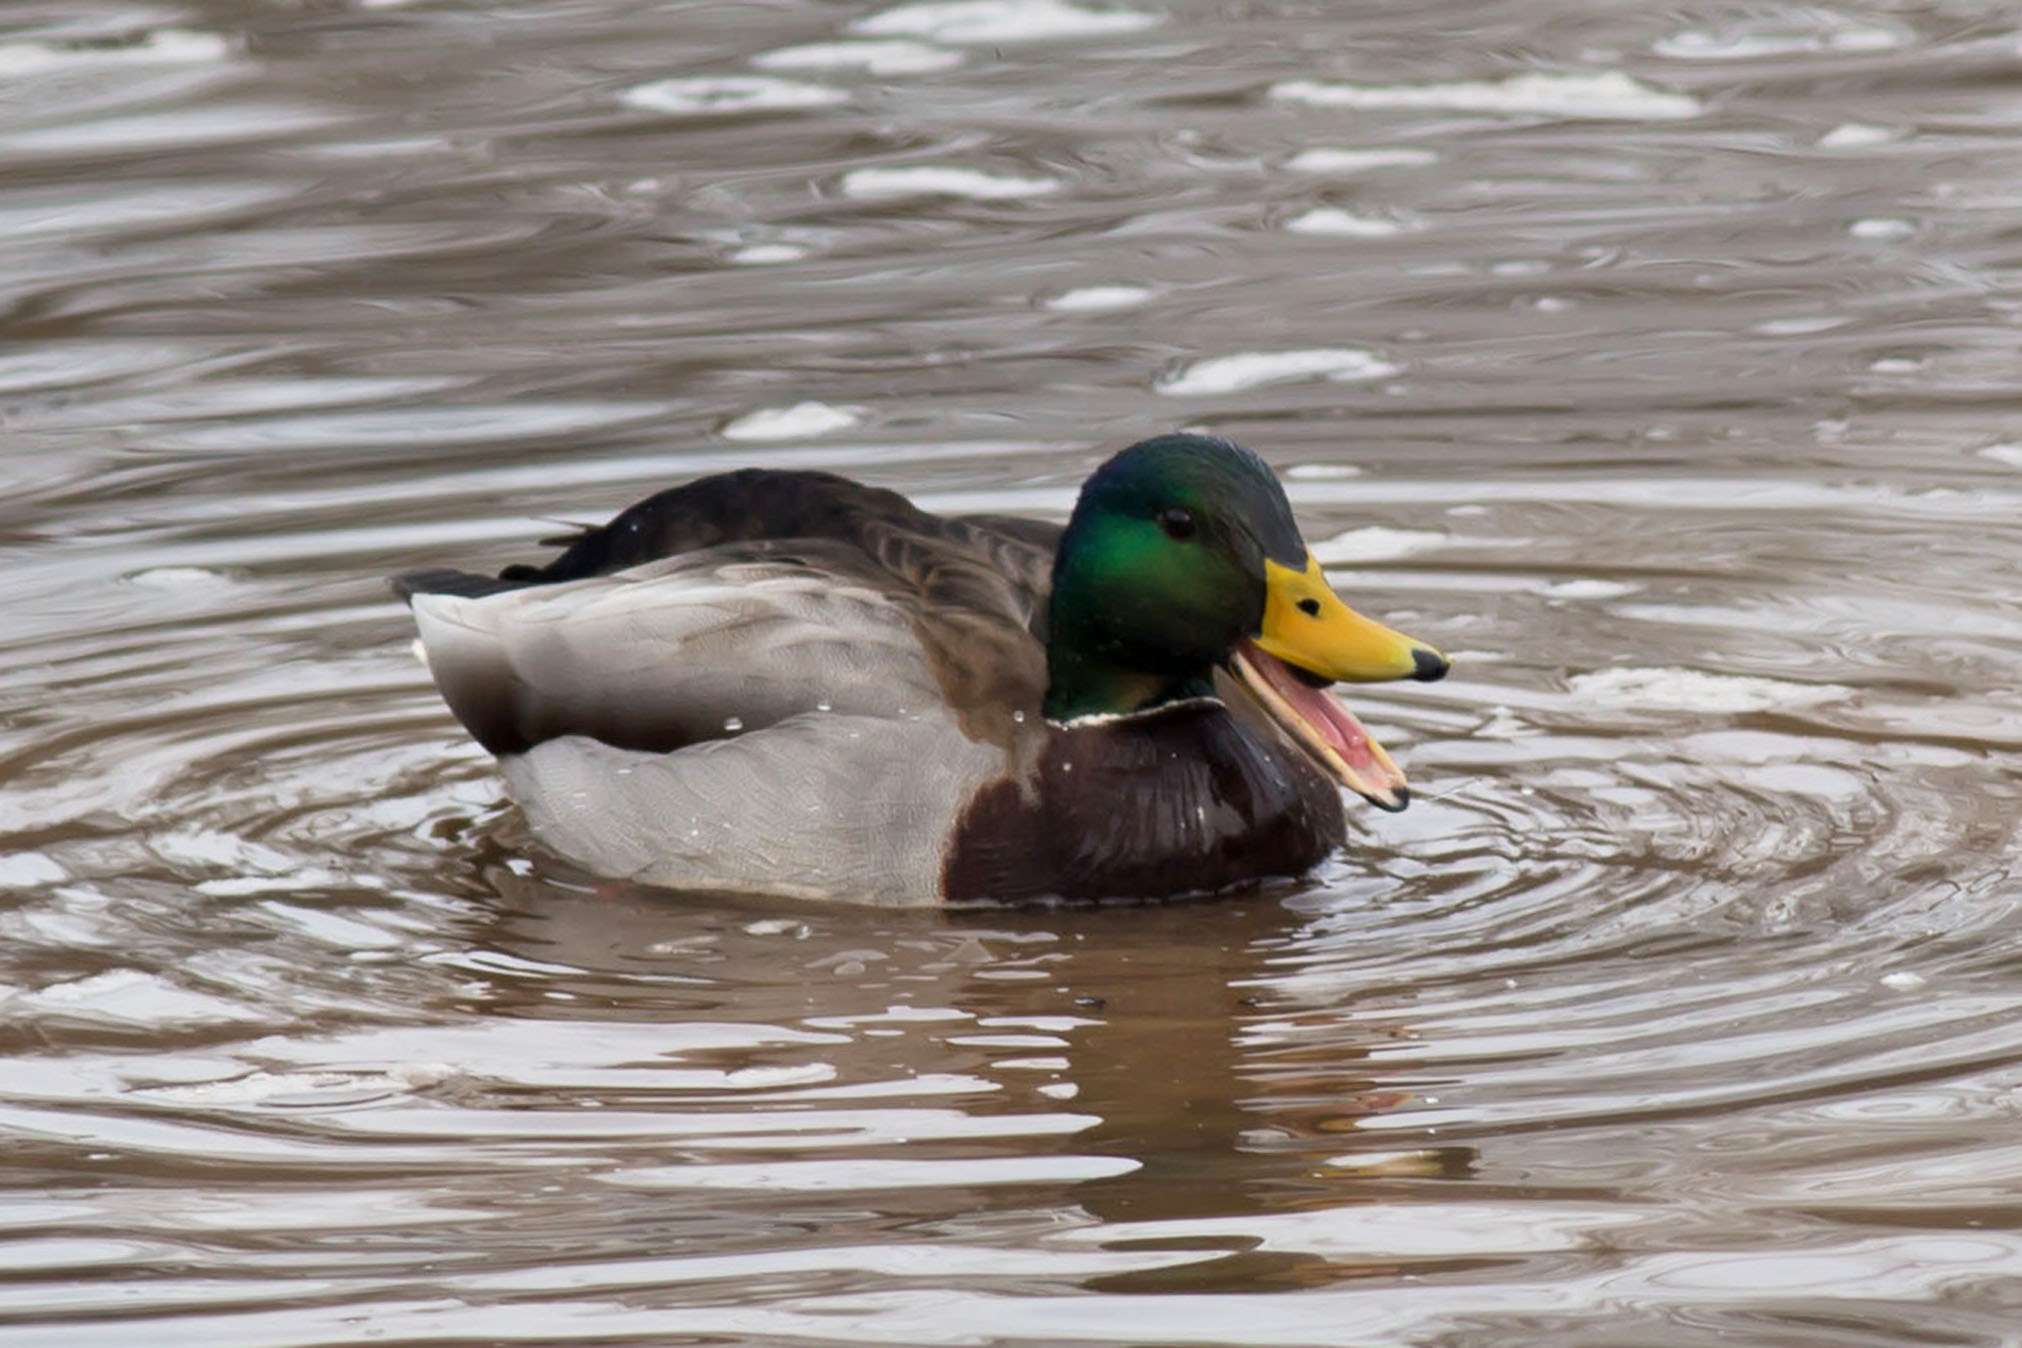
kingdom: Animalia
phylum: Chordata
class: Aves
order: Anseriformes
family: Anatidae
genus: Anas
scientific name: Anas platyrhynchos
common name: Mallard
